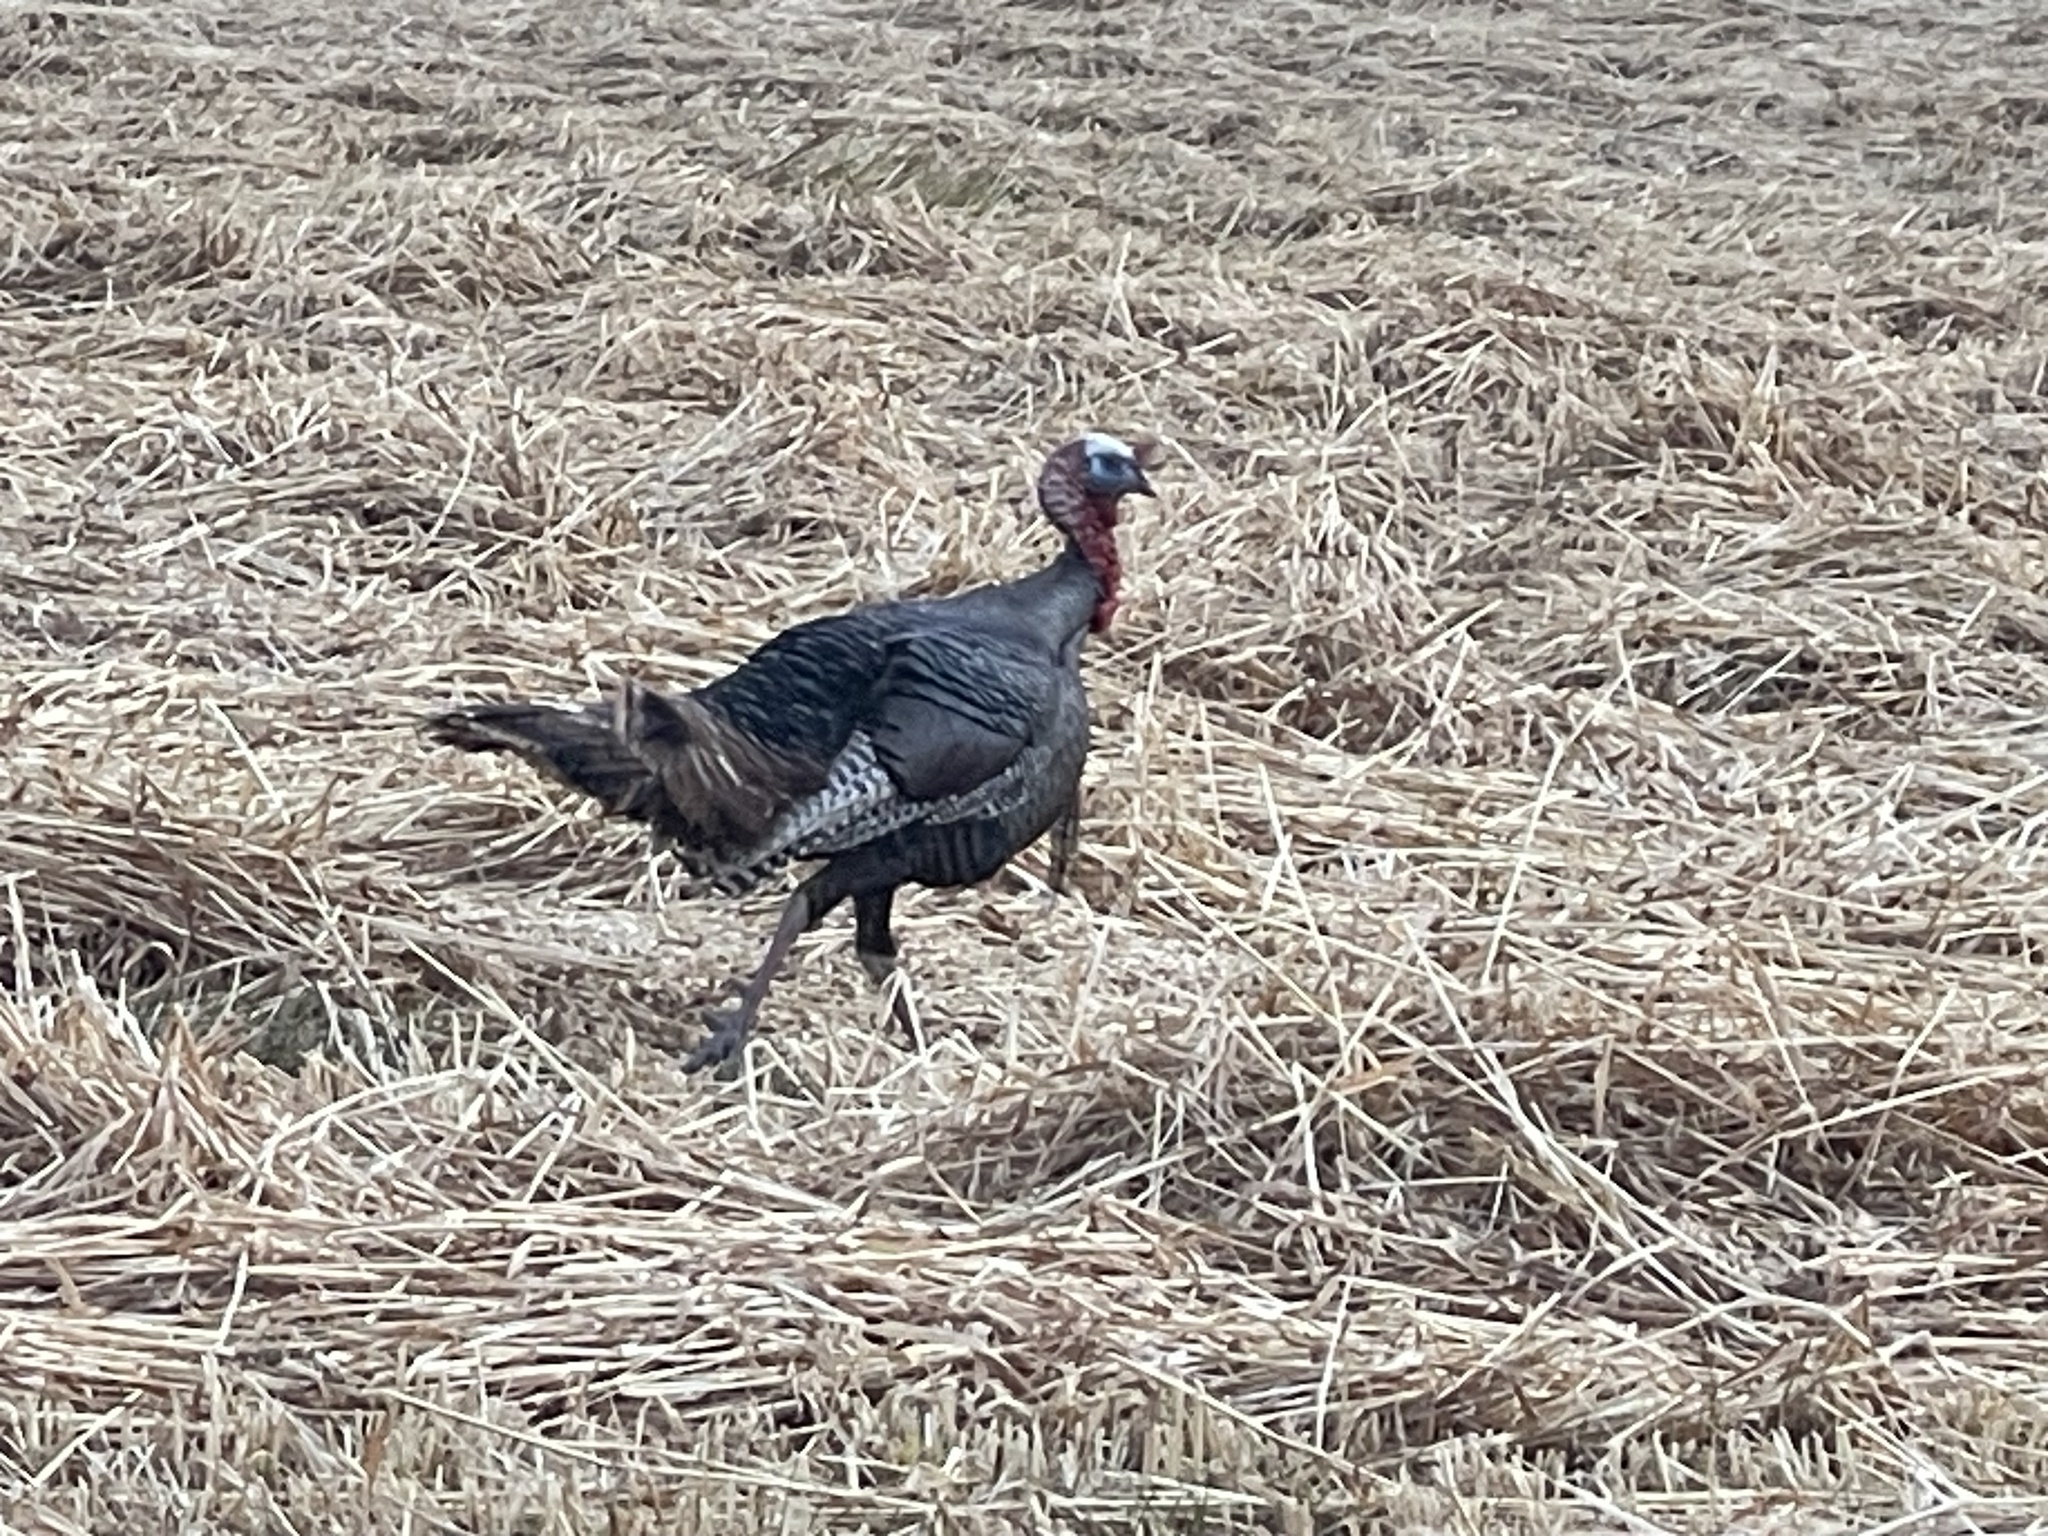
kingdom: Animalia
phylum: Chordata
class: Aves
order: Galliformes
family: Phasianidae
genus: Meleagris
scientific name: Meleagris gallopavo
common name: Wild turkey
